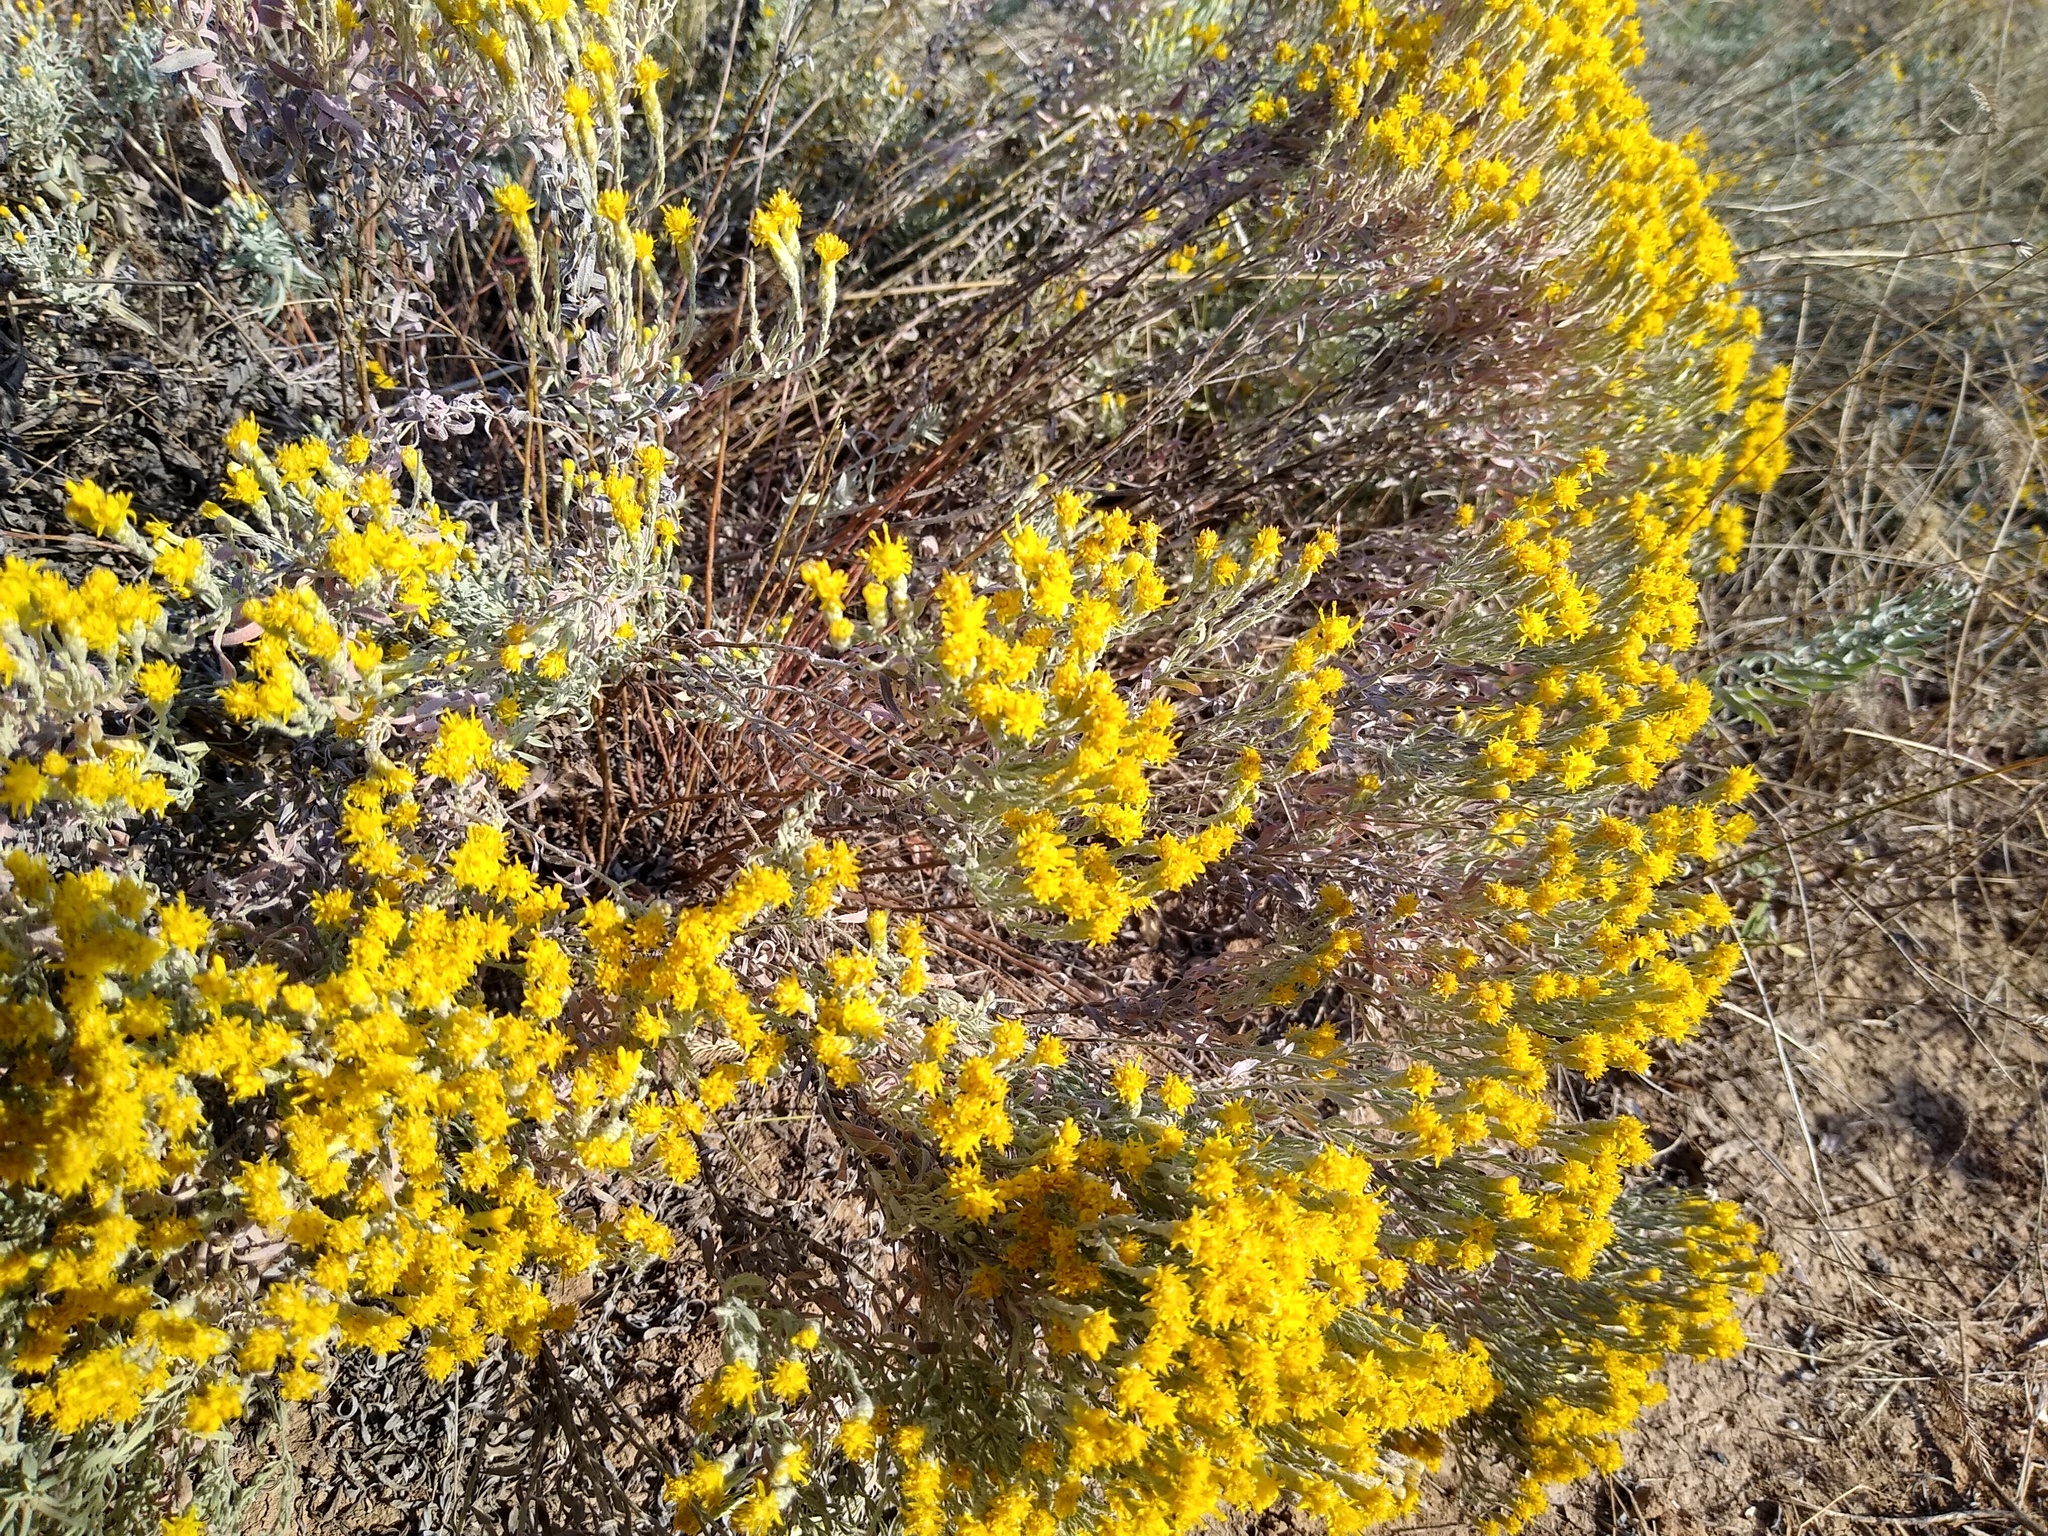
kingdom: Plantae
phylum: Tracheophyta
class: Magnoliopsida
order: Asterales
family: Asteraceae
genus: Galatella
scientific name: Galatella villosa
